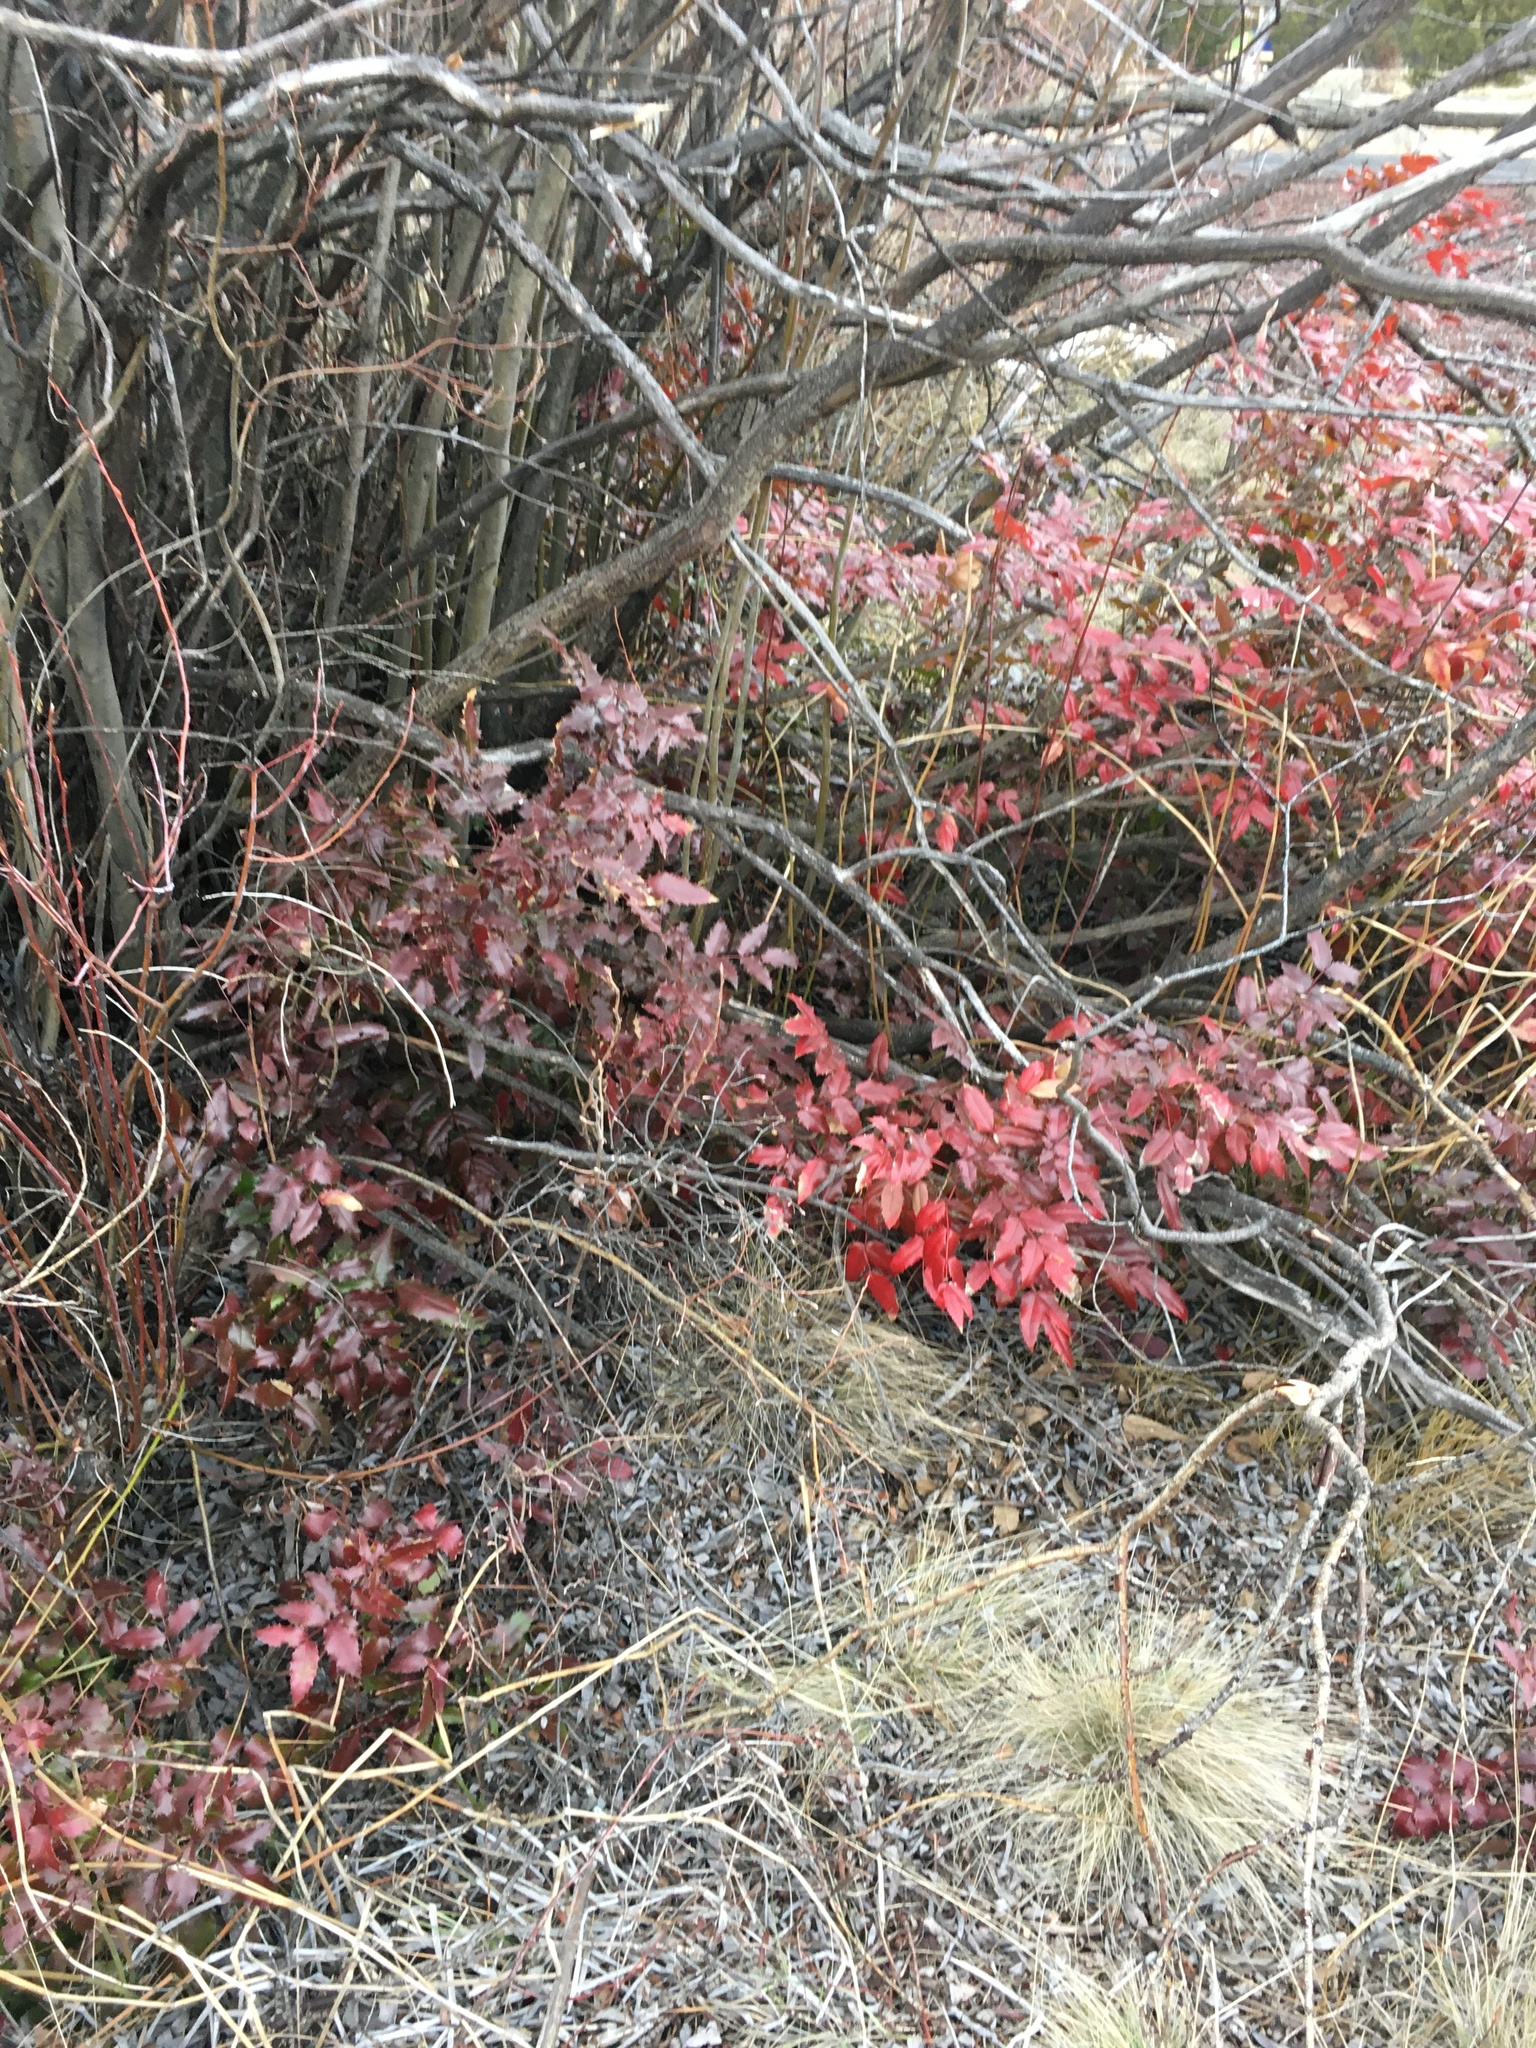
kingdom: Plantae
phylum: Tracheophyta
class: Magnoliopsida
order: Ranunculales
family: Berberidaceae
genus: Mahonia
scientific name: Mahonia aquifolium
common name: Oregon-grape
